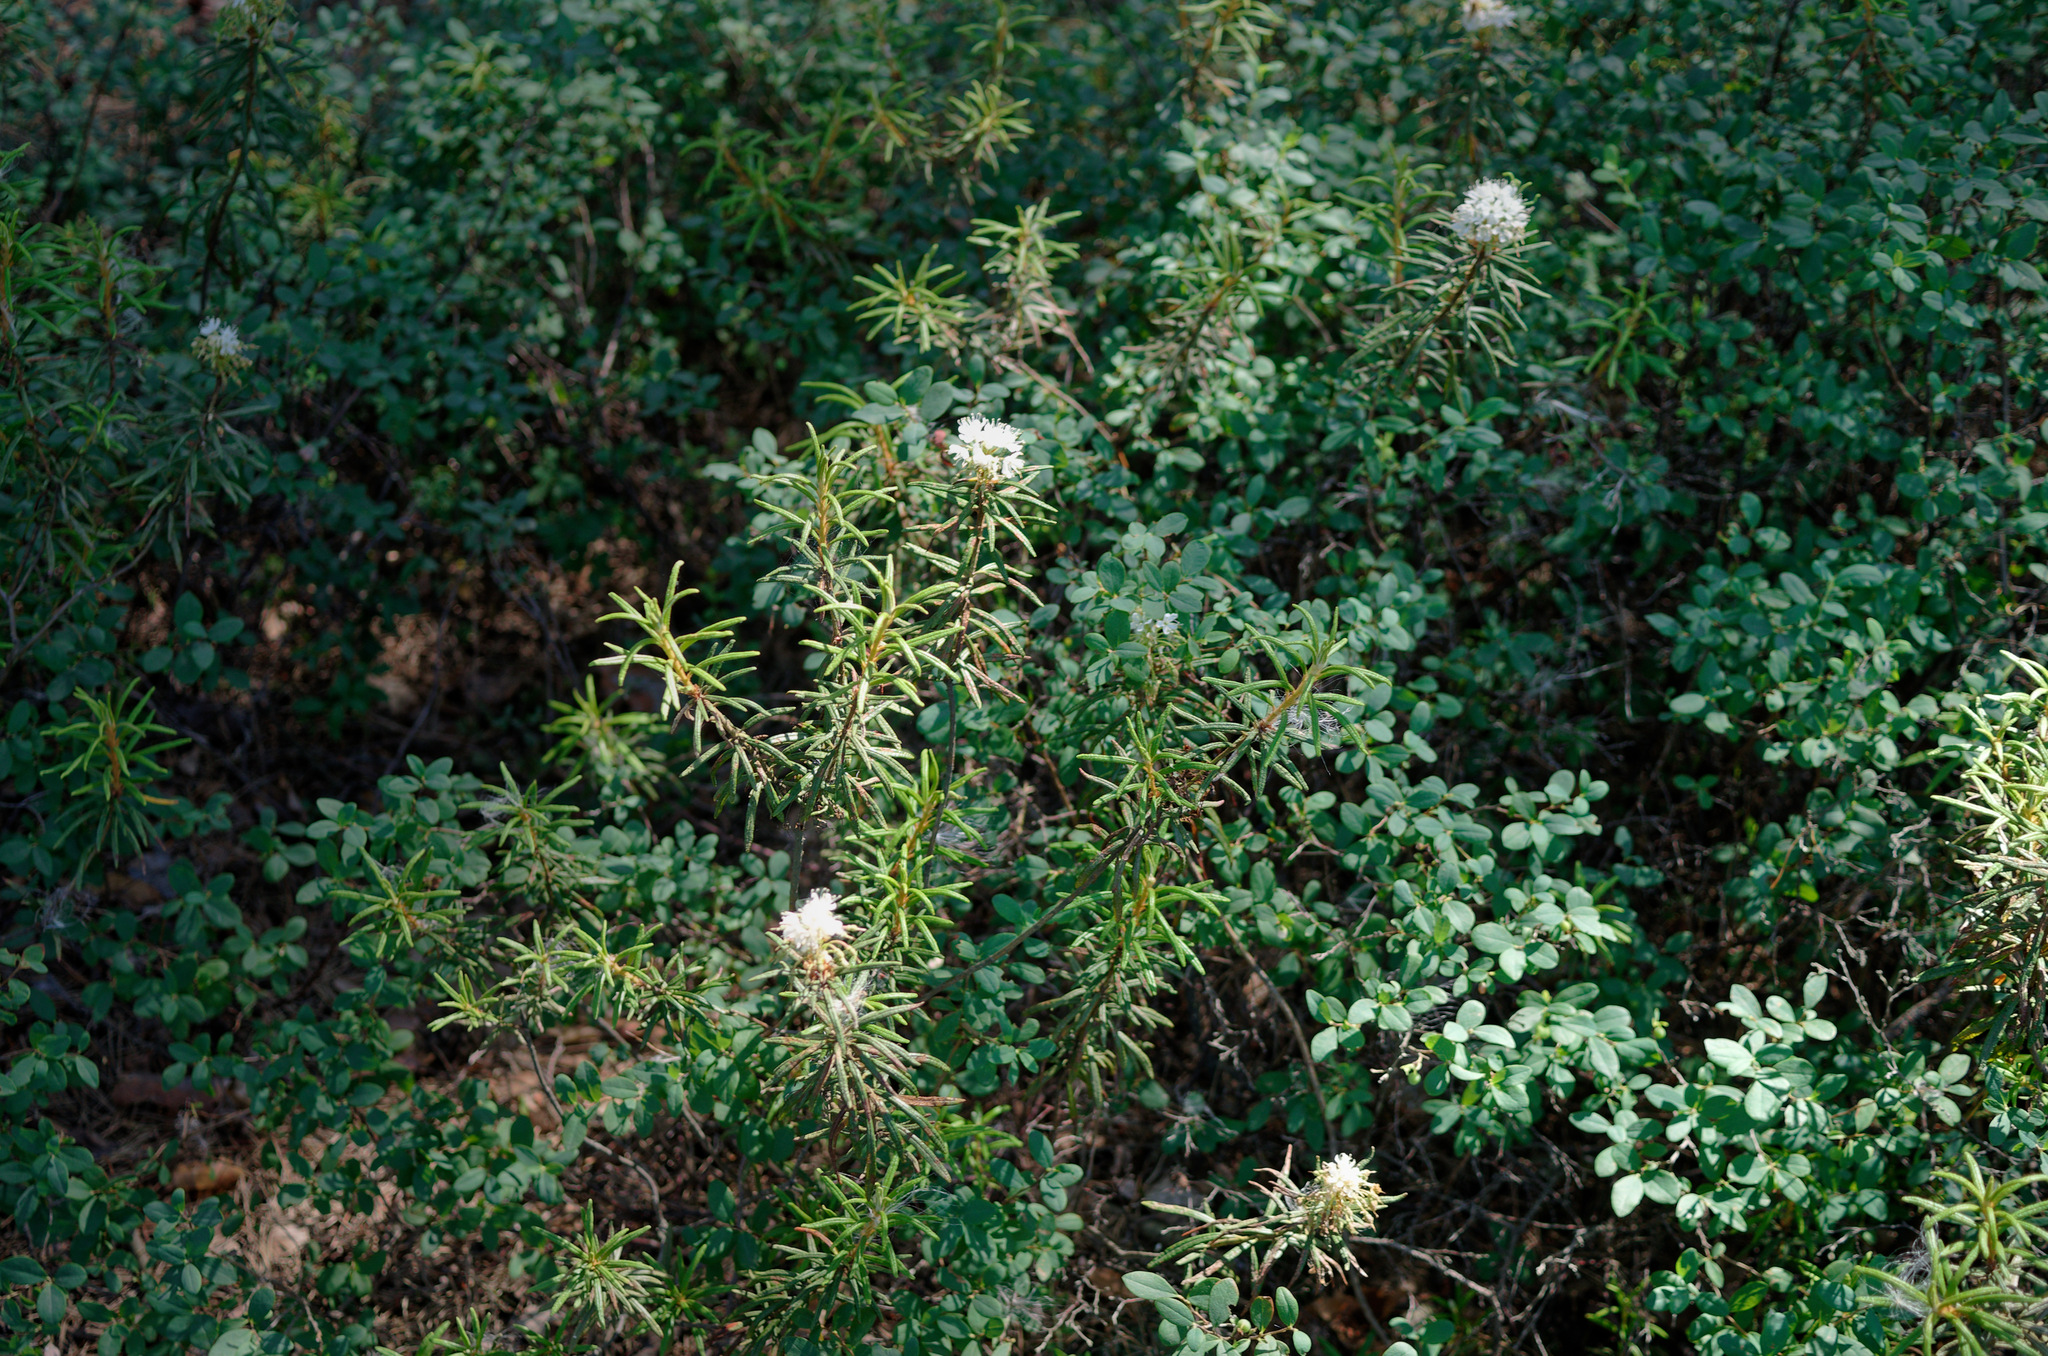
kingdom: Plantae
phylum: Tracheophyta
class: Magnoliopsida
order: Ericales
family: Ericaceae
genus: Rhododendron
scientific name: Rhododendron tomentosum
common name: Marsh labrador tea
